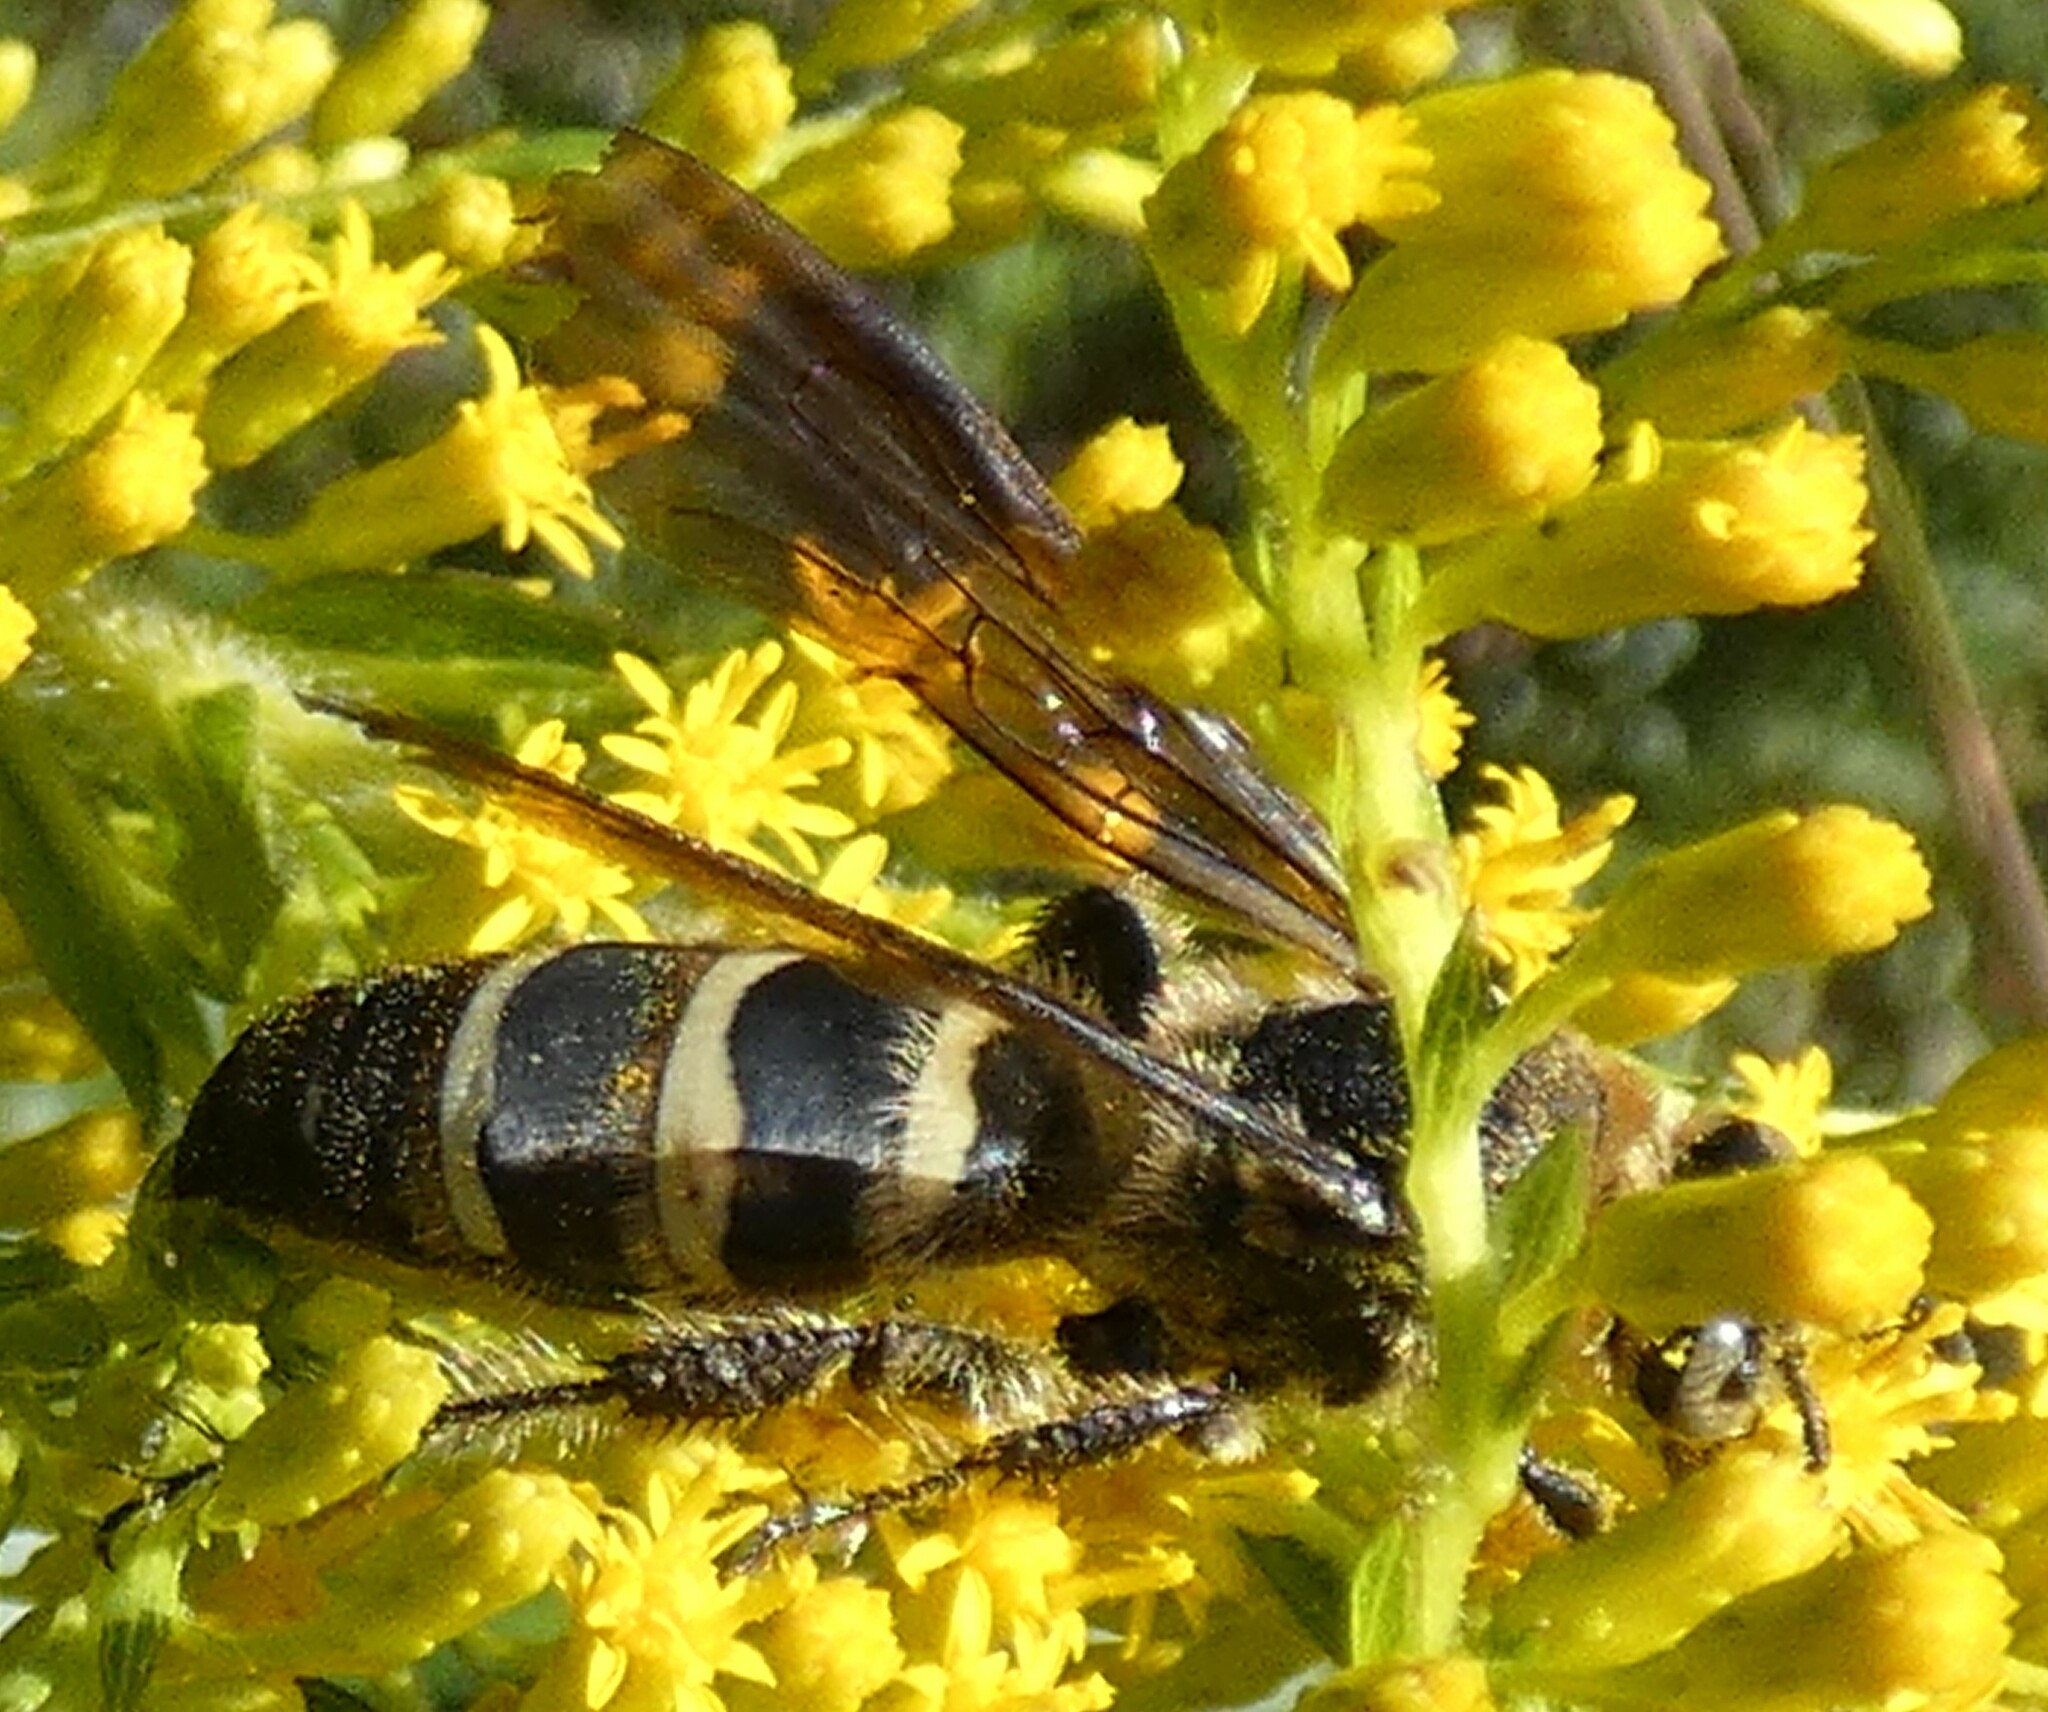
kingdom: Animalia
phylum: Arthropoda
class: Insecta
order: Hymenoptera
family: Scoliidae
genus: Dielis
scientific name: Dielis
